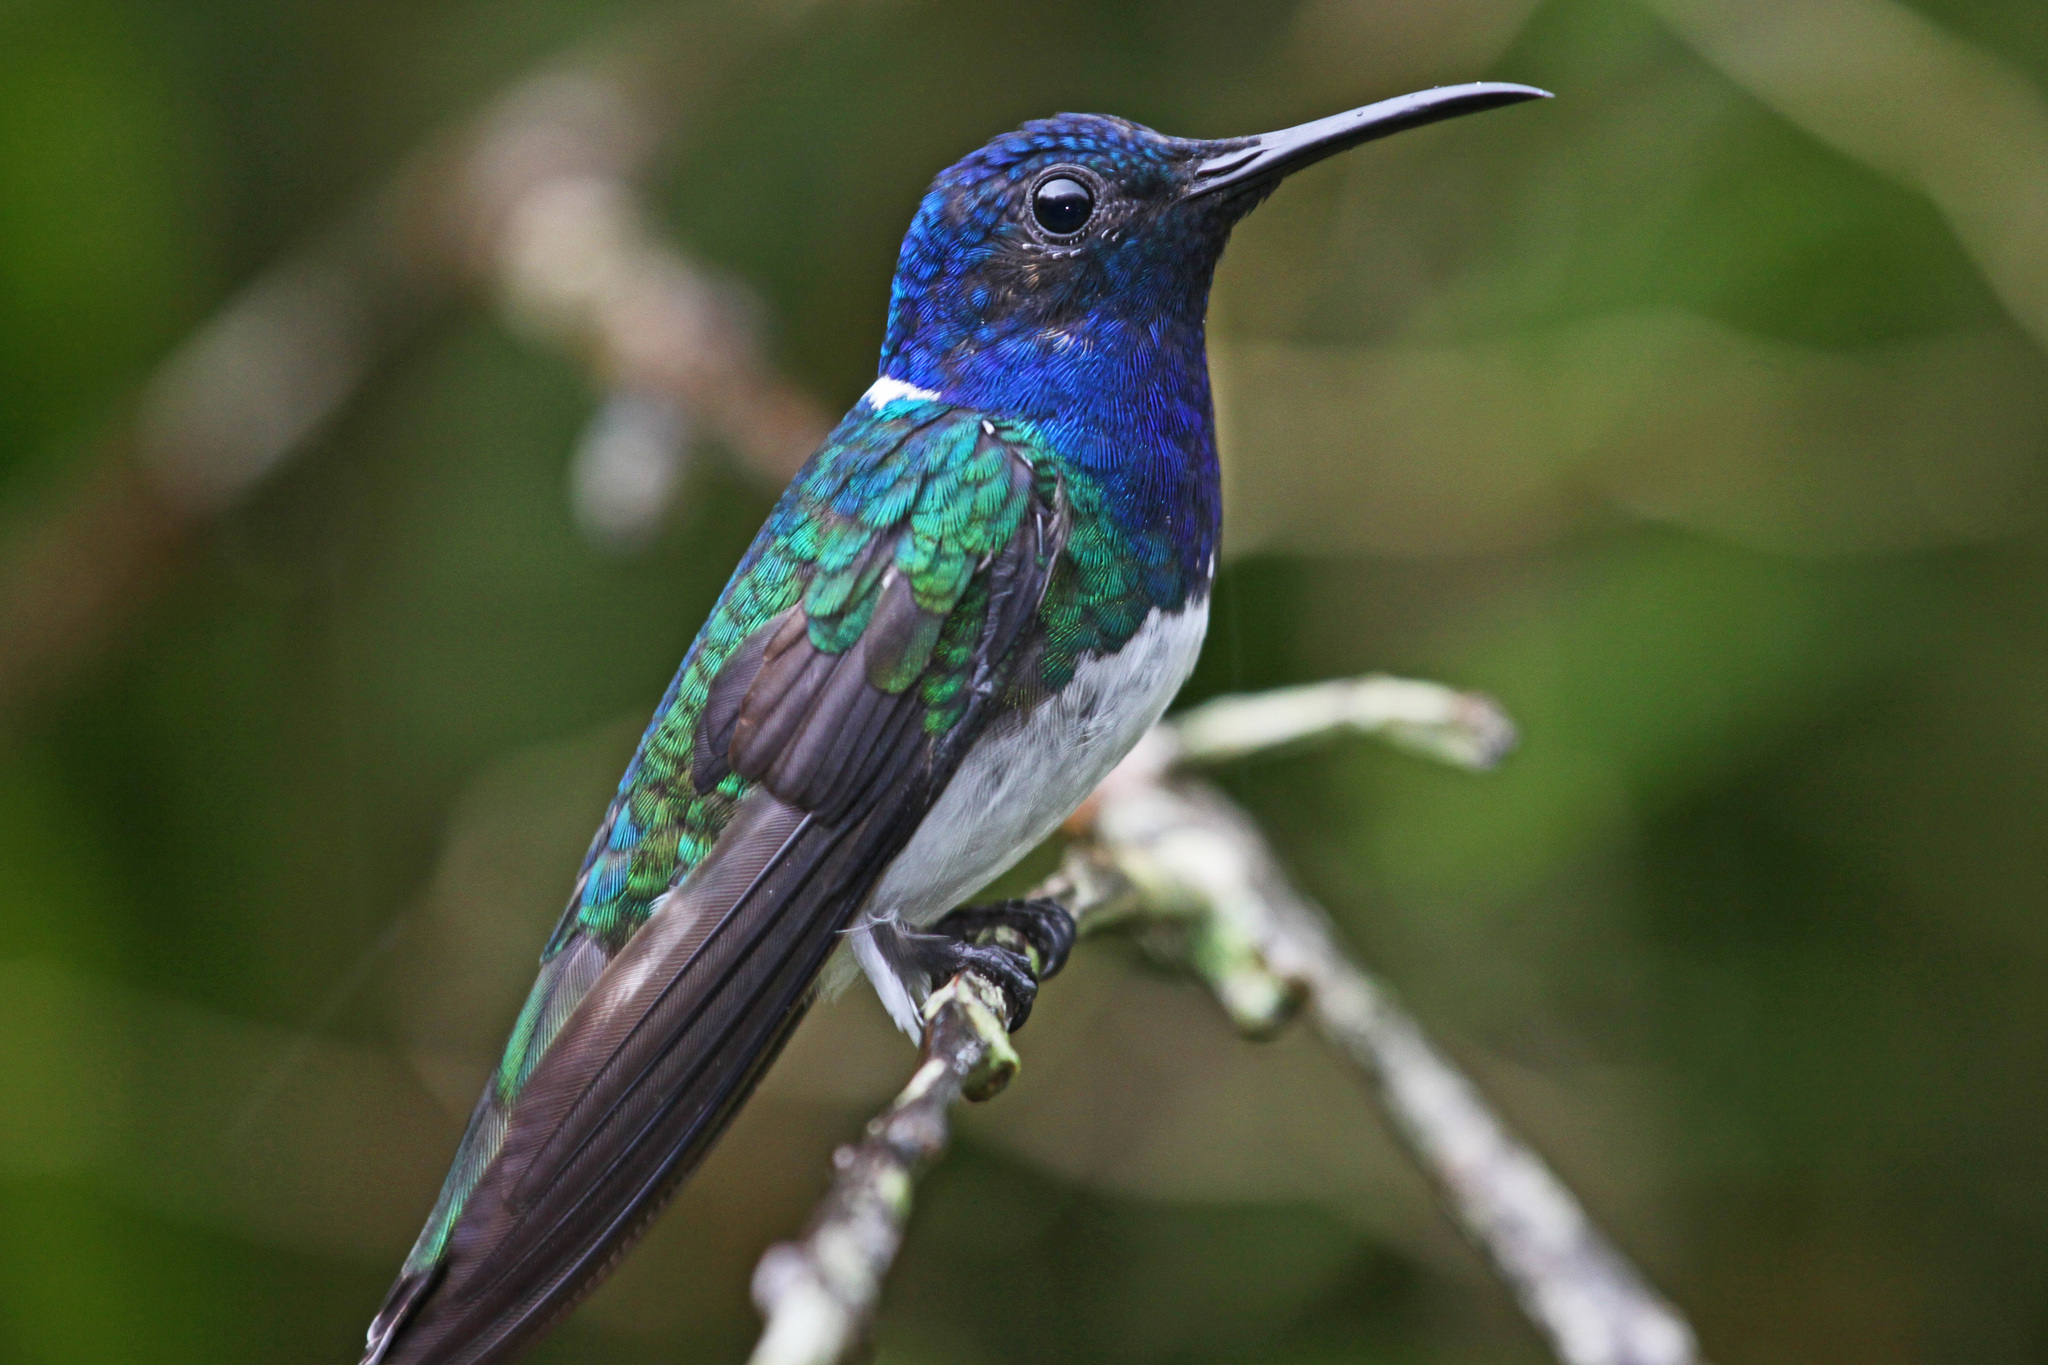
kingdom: Animalia
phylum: Chordata
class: Aves
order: Apodiformes
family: Trochilidae
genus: Florisuga
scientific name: Florisuga mellivora
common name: White-necked jacobin
